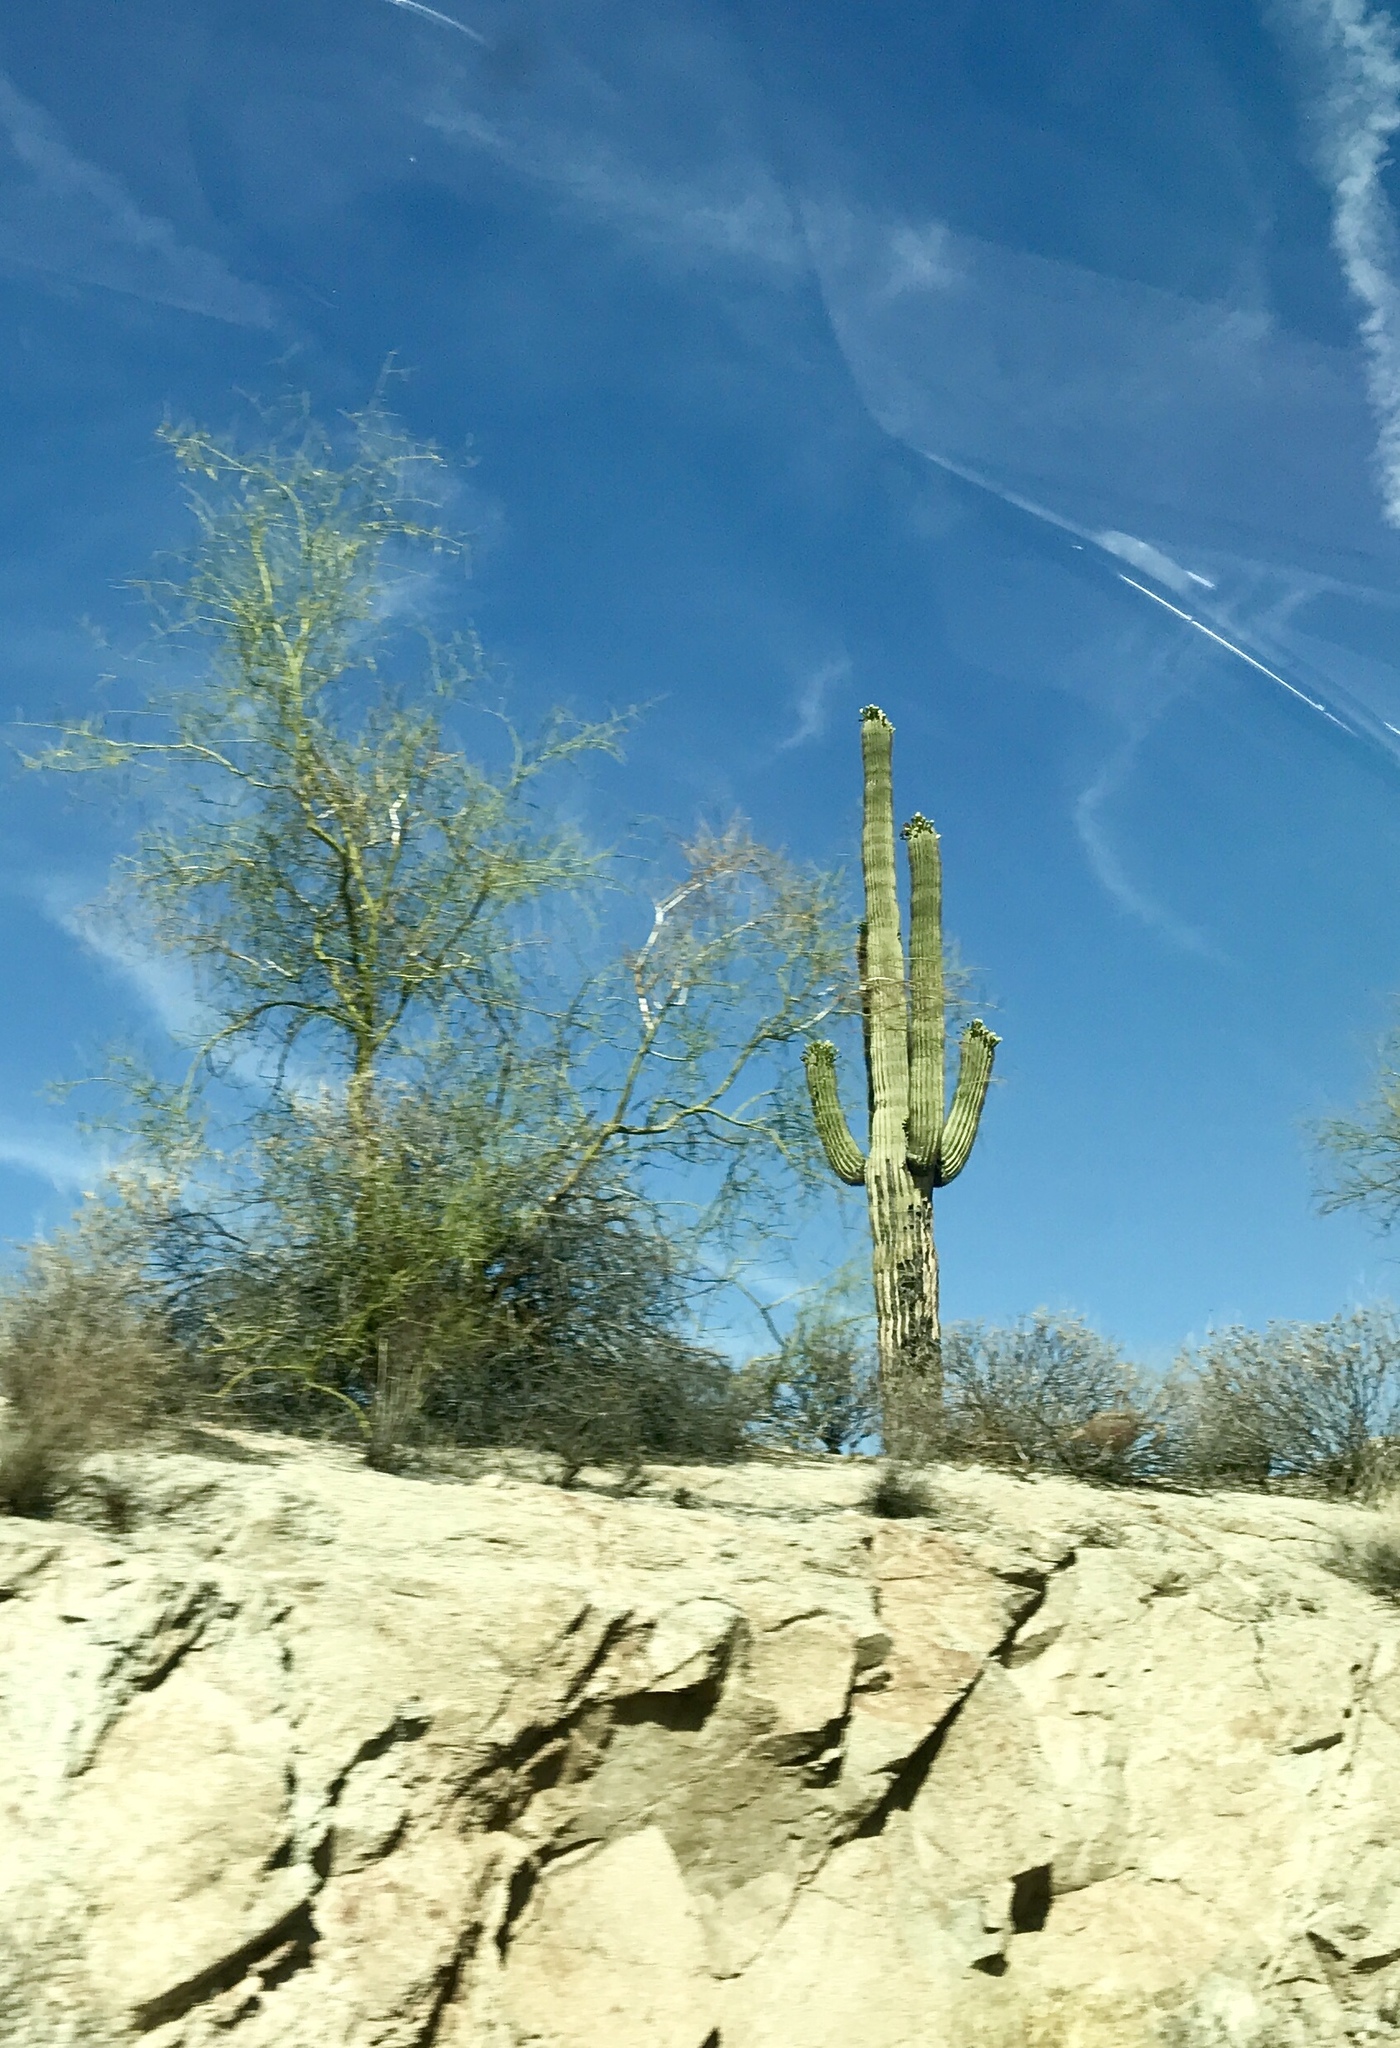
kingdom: Plantae
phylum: Tracheophyta
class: Magnoliopsida
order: Caryophyllales
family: Cactaceae
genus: Carnegiea
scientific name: Carnegiea gigantea
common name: Saguaro
